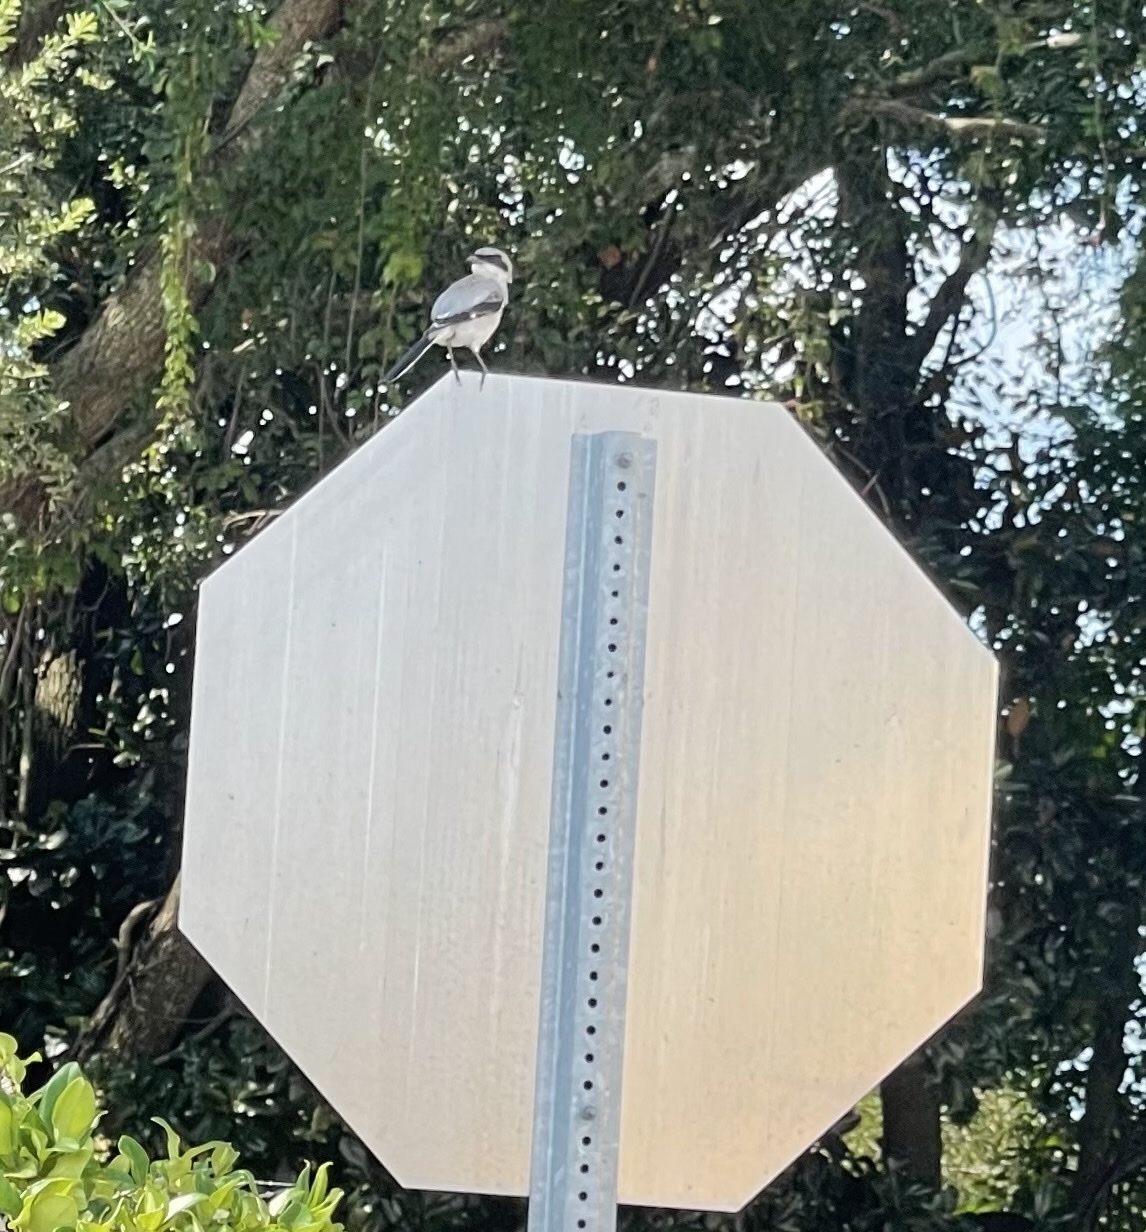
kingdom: Animalia
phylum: Chordata
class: Aves
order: Passeriformes
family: Laniidae
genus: Lanius
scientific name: Lanius ludovicianus
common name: Loggerhead shrike
